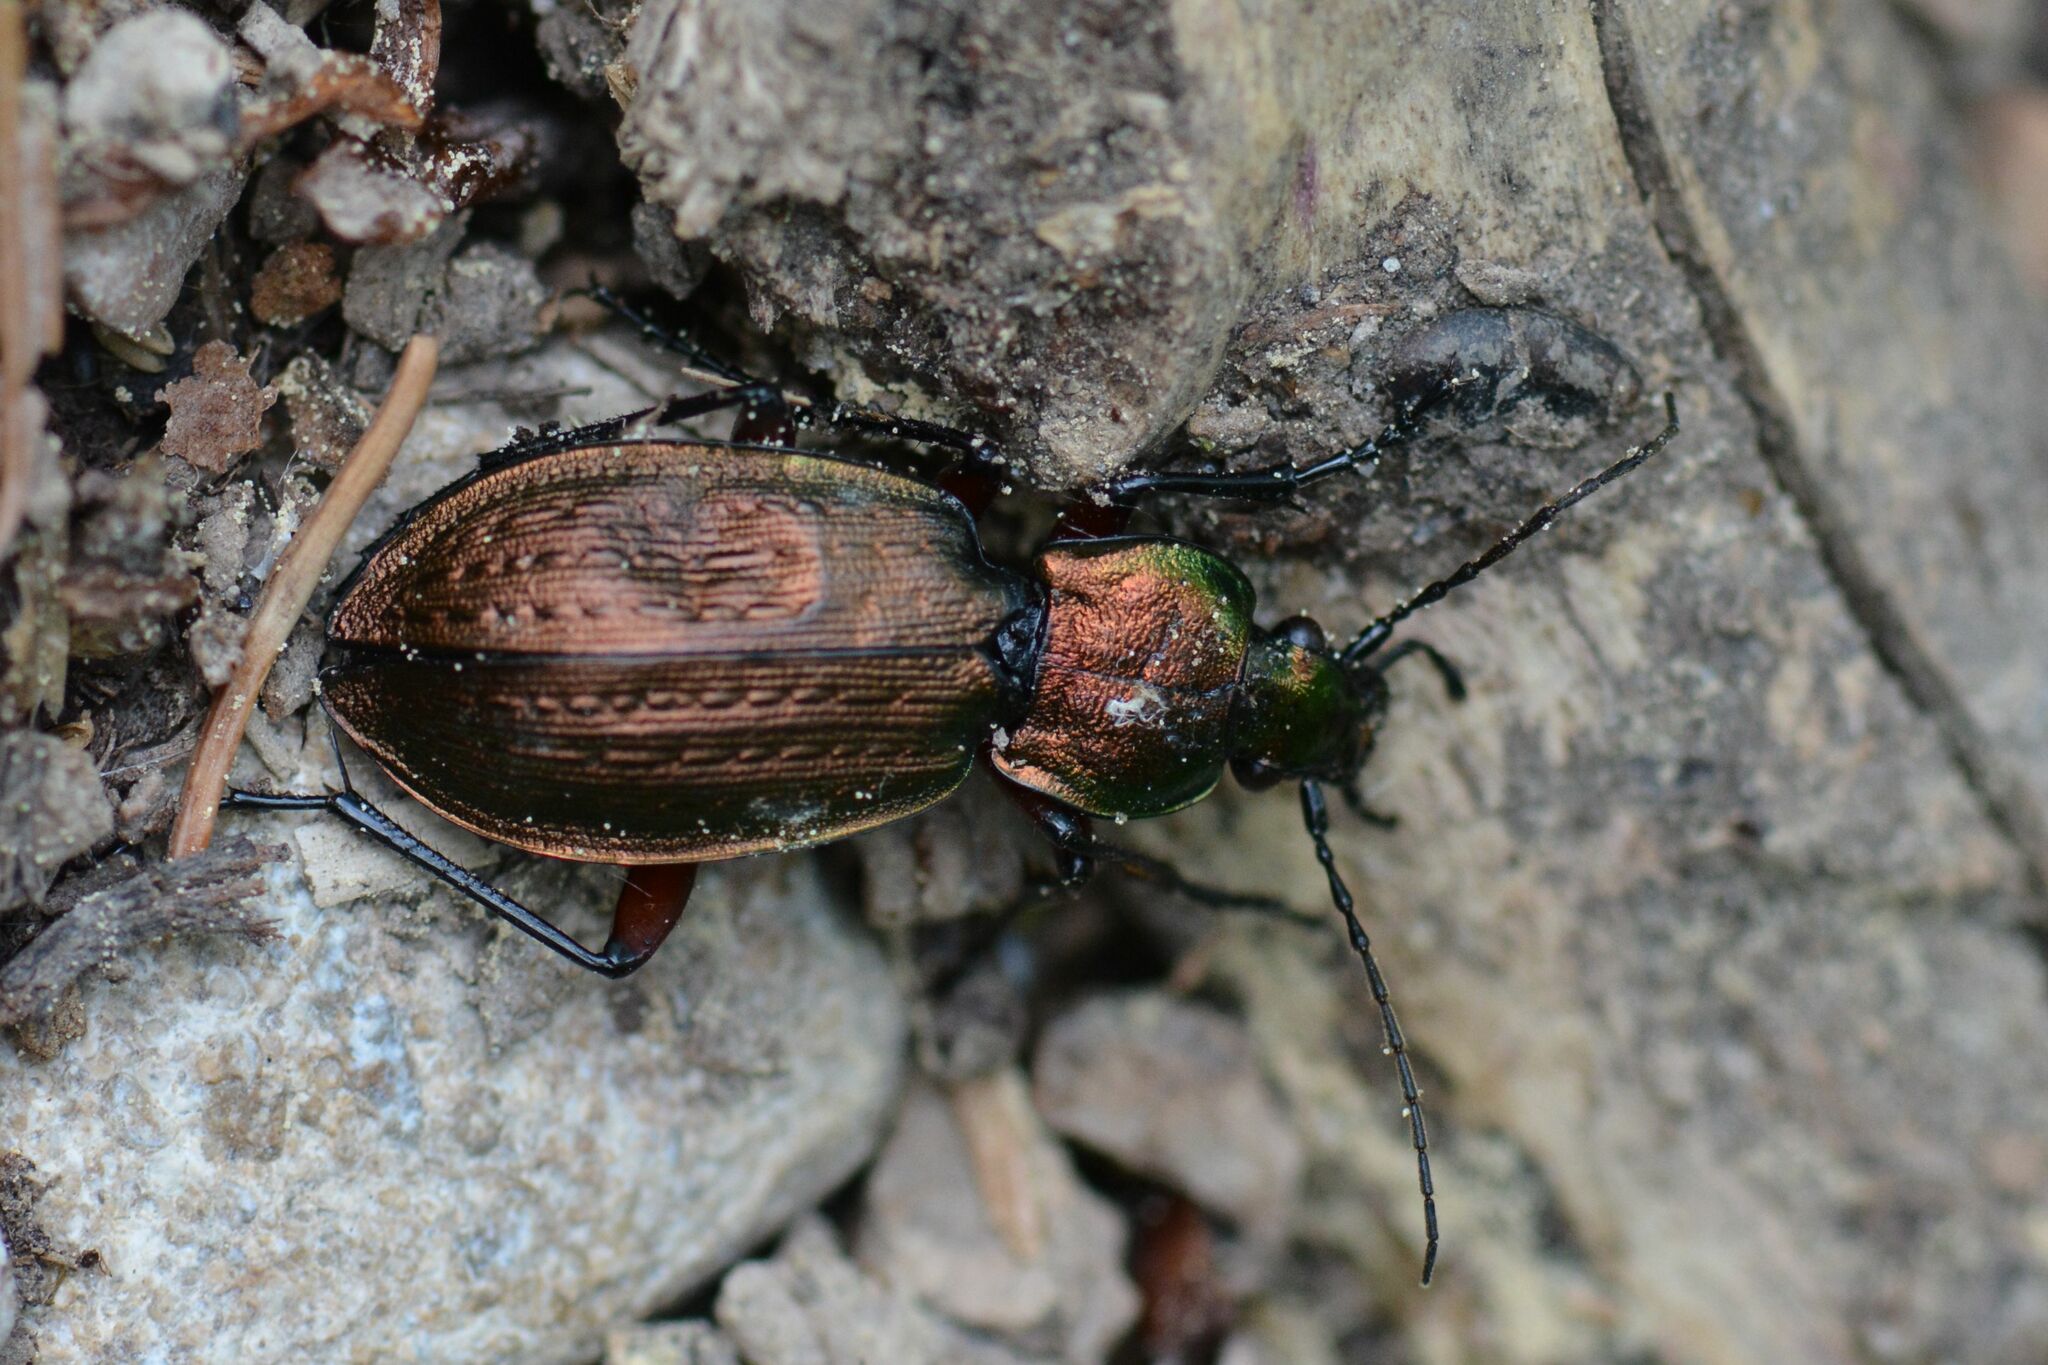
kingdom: Animalia
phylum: Arthropoda
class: Insecta
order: Coleoptera
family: Carabidae
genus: Carabus
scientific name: Carabus arvensis
